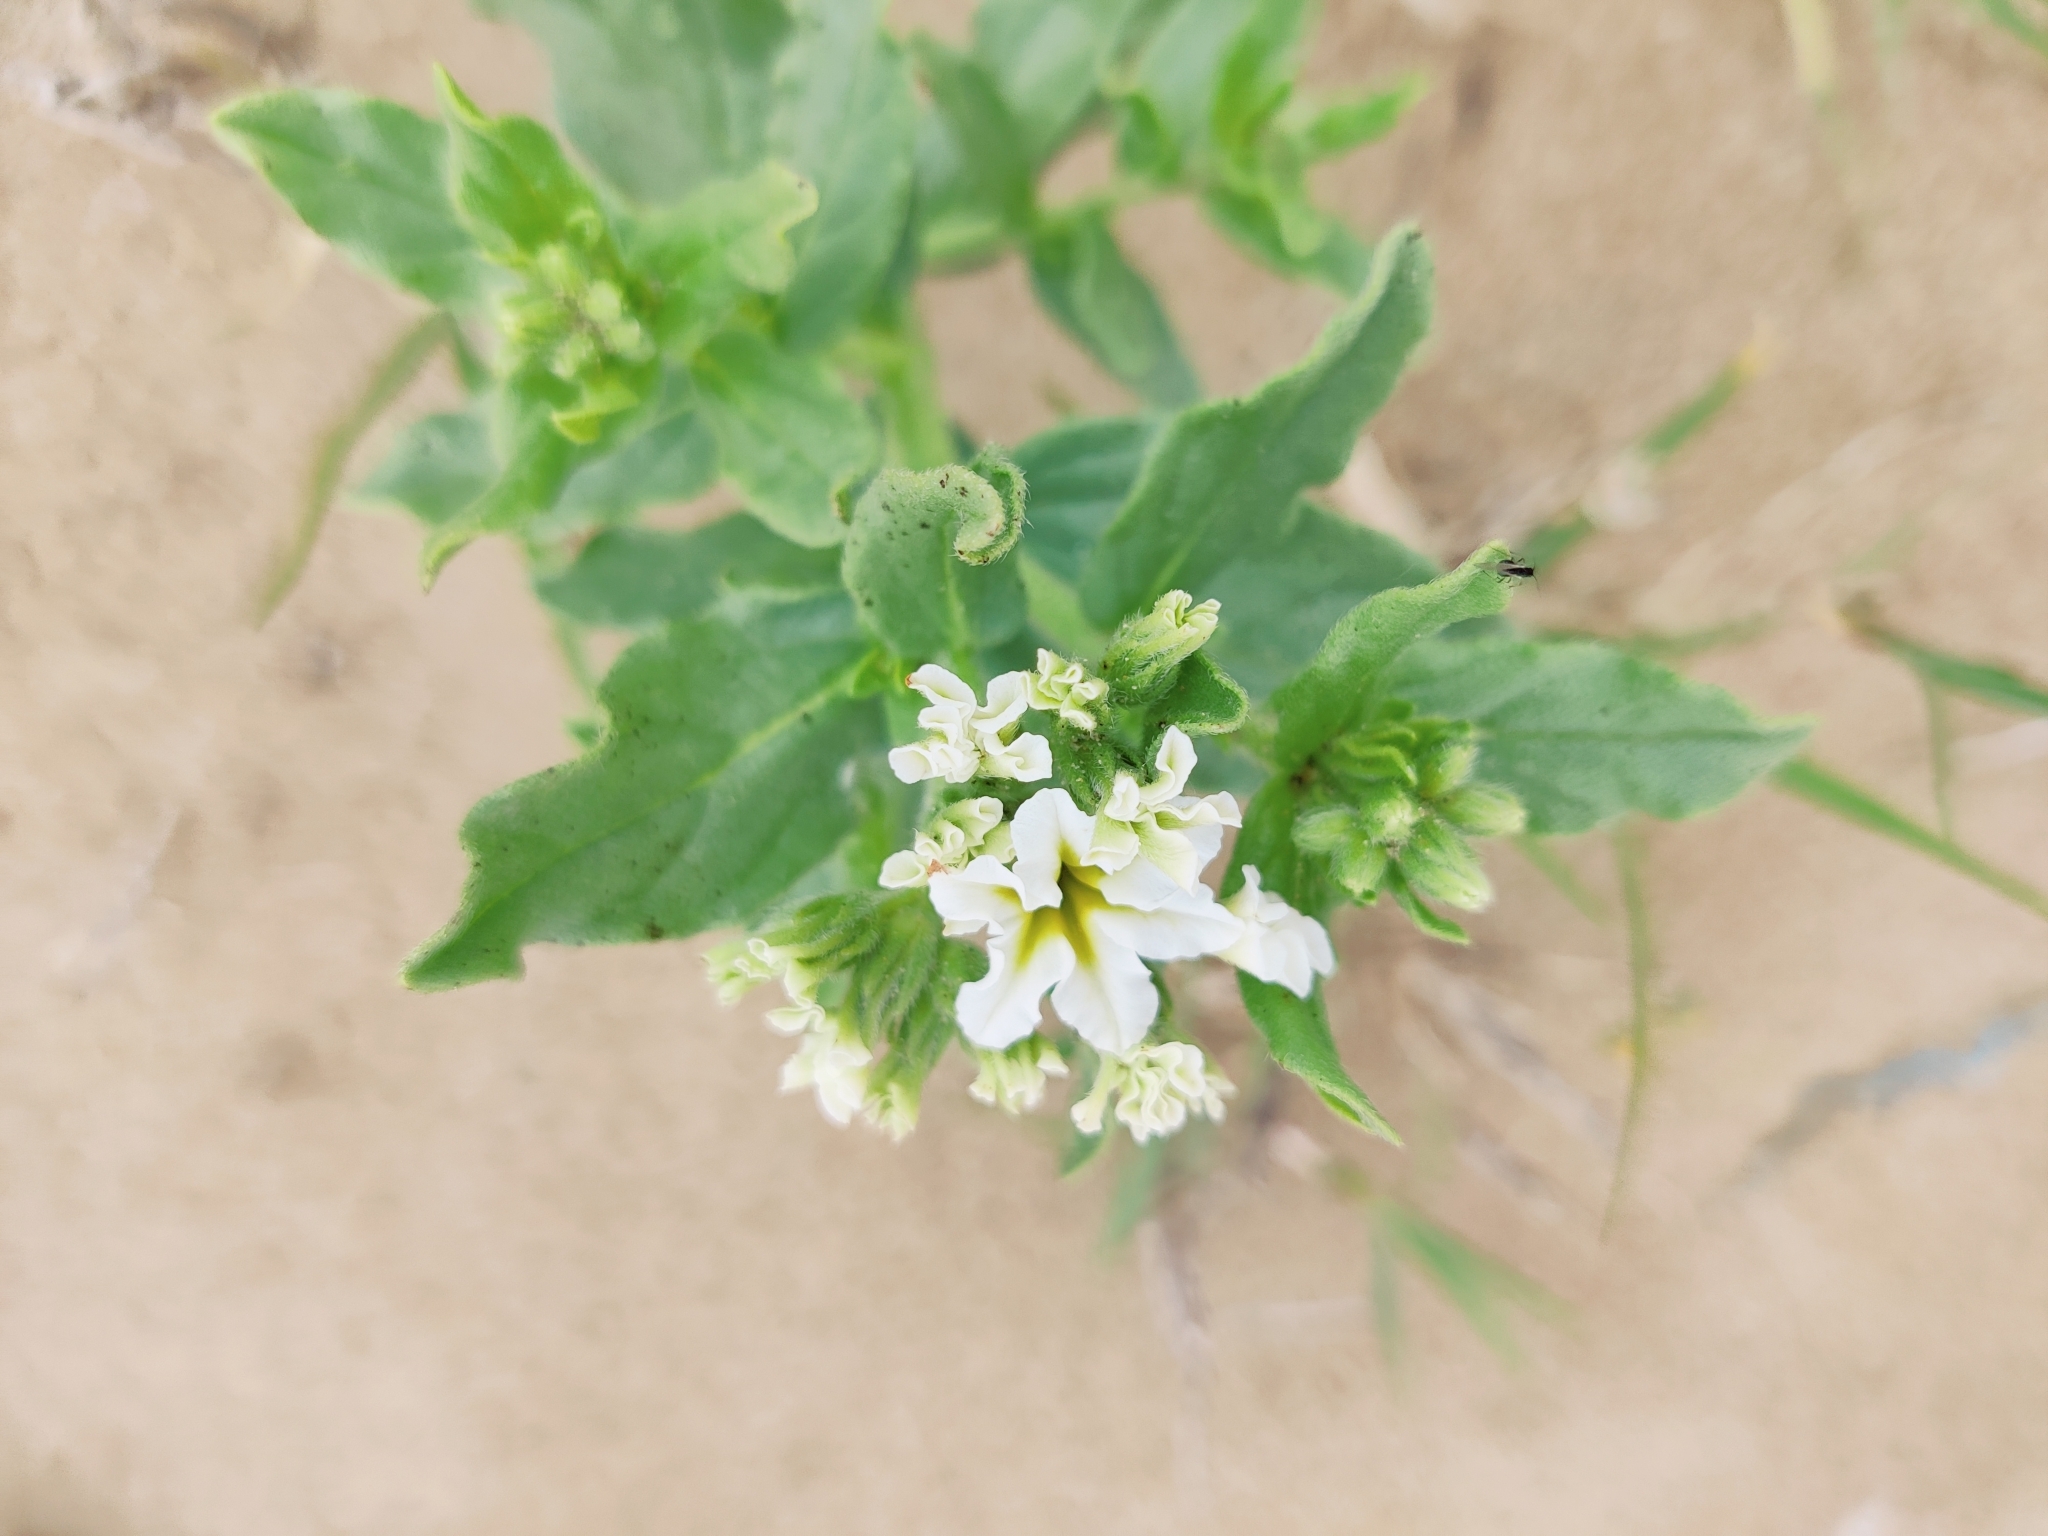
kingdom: Plantae
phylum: Tracheophyta
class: Magnoliopsida
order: Boraginales
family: Heliotropiaceae
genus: Tournefortia
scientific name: Tournefortia sibirica
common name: Siberian sea rosemary
